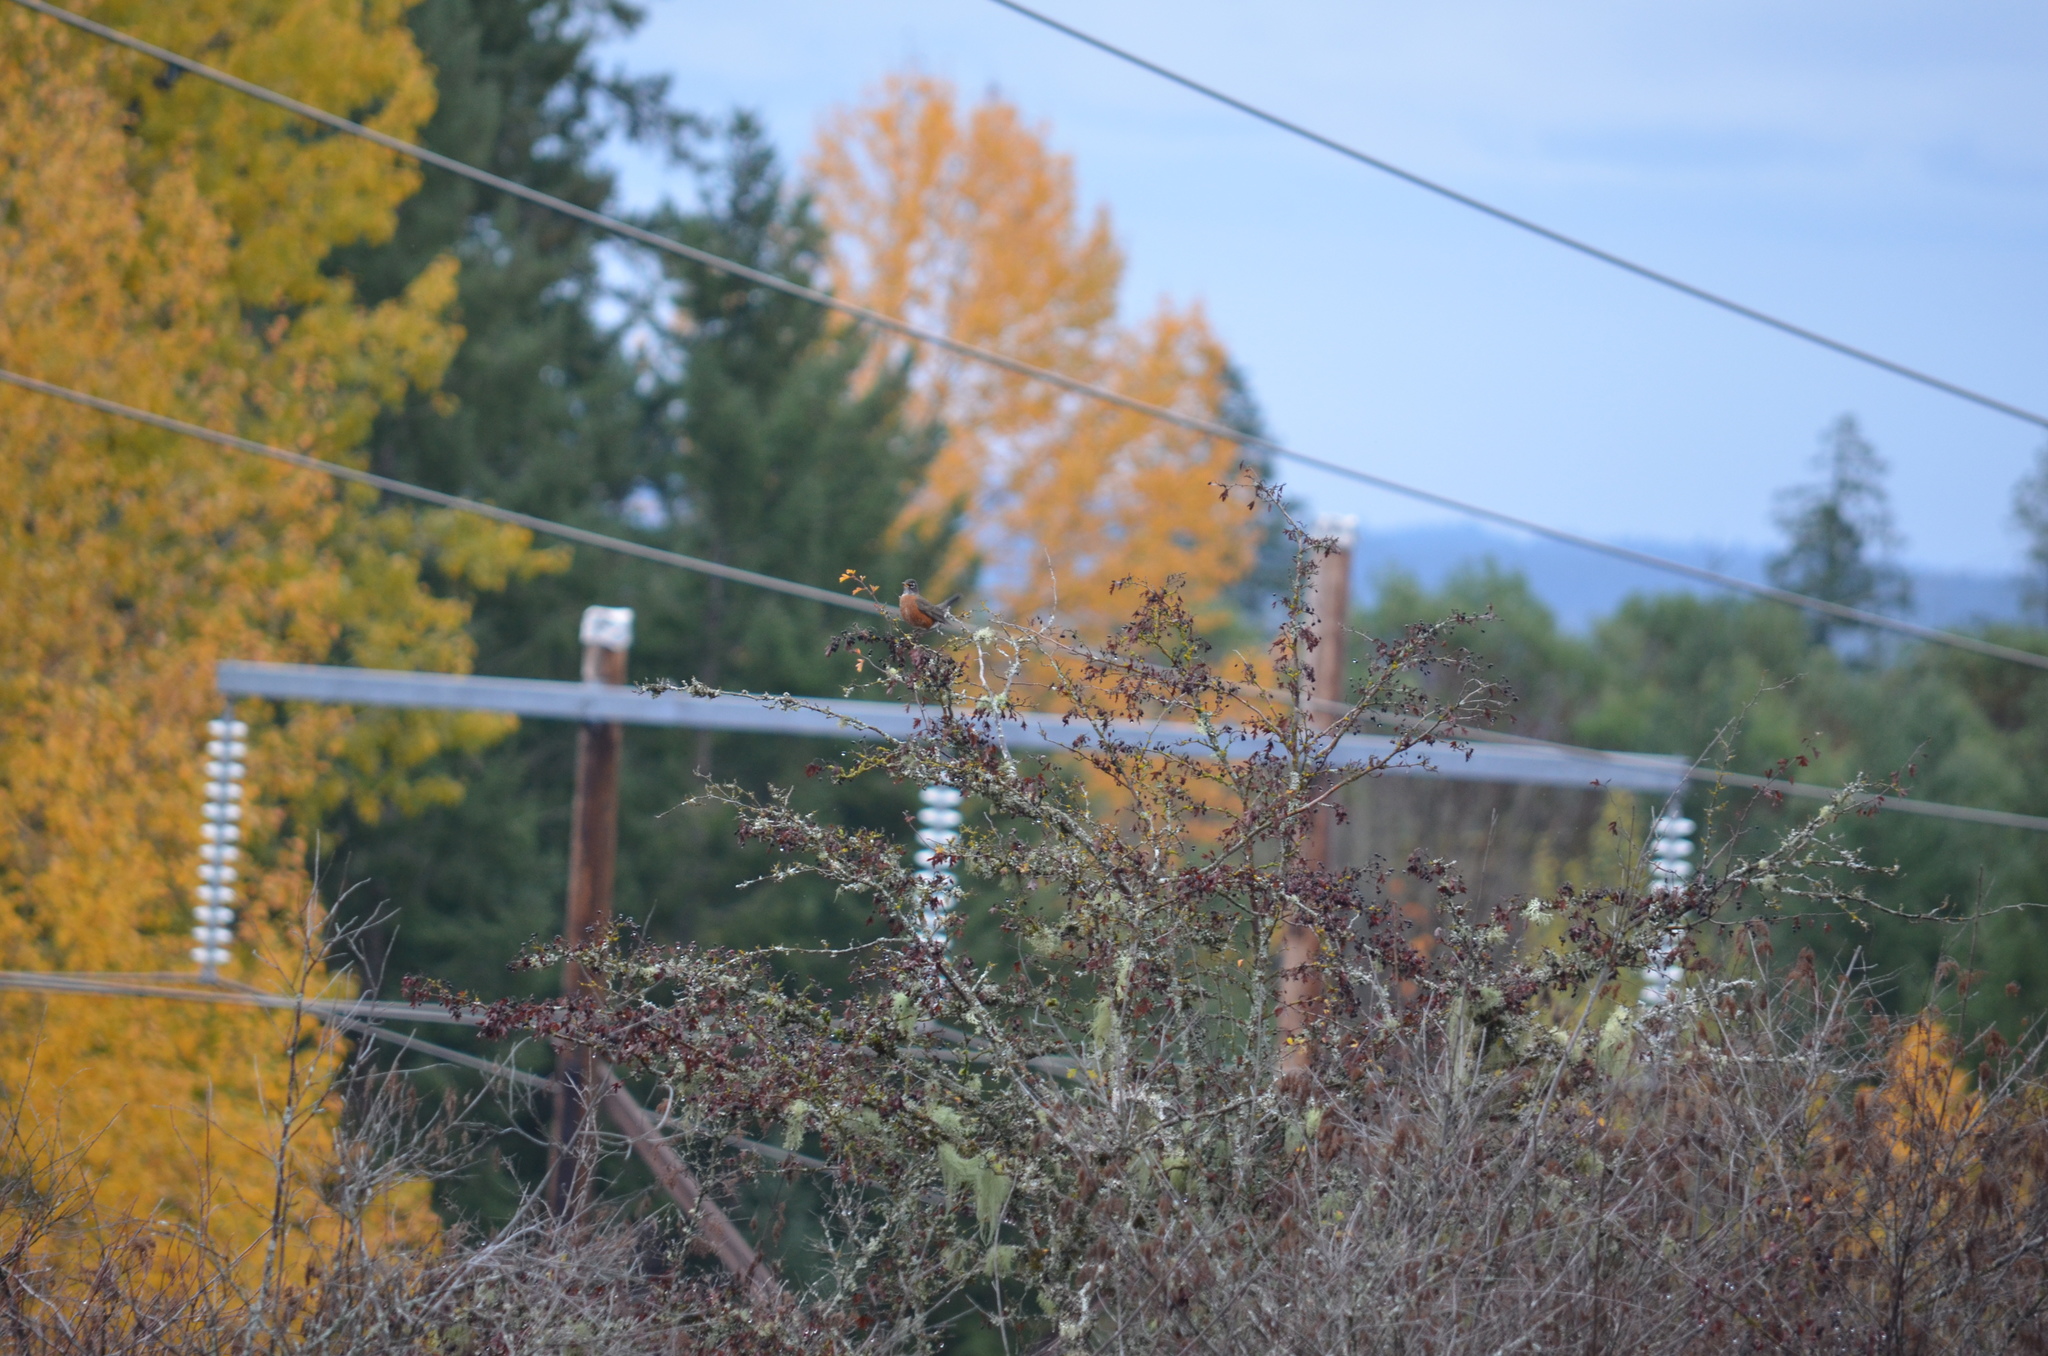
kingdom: Animalia
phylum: Chordata
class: Aves
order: Passeriformes
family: Turdidae
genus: Turdus
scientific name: Turdus migratorius
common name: American robin
